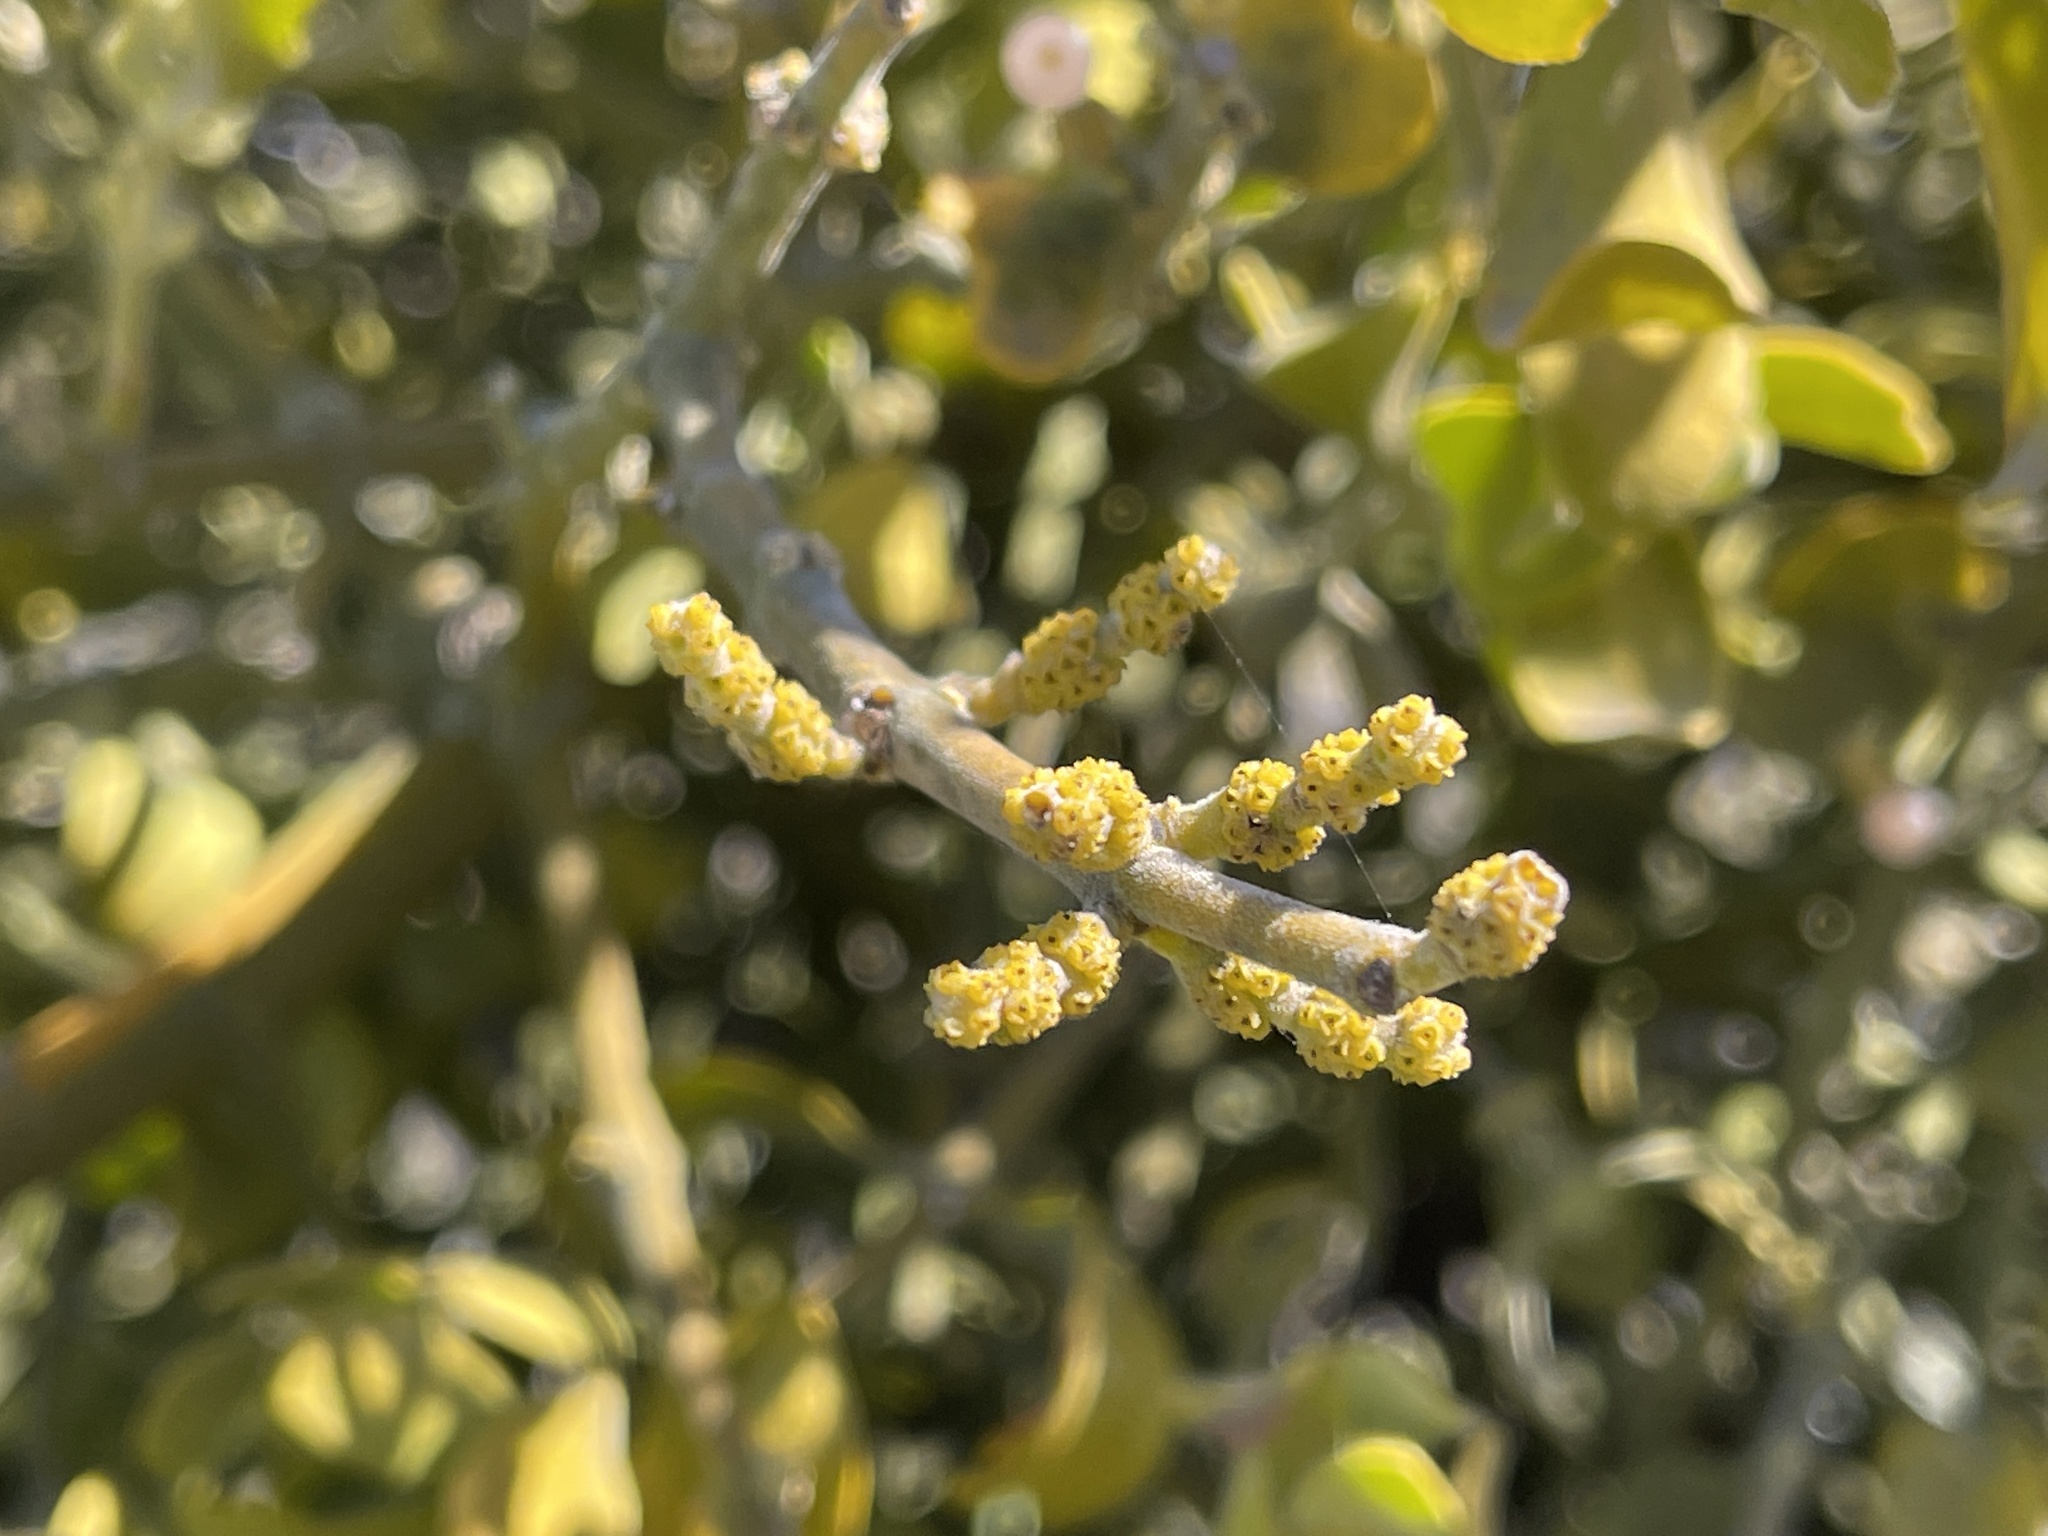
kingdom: Plantae
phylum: Tracheophyta
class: Magnoliopsida
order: Santalales
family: Viscaceae
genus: Phoradendron
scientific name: Phoradendron leucarpum
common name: Pacific mistletoe
